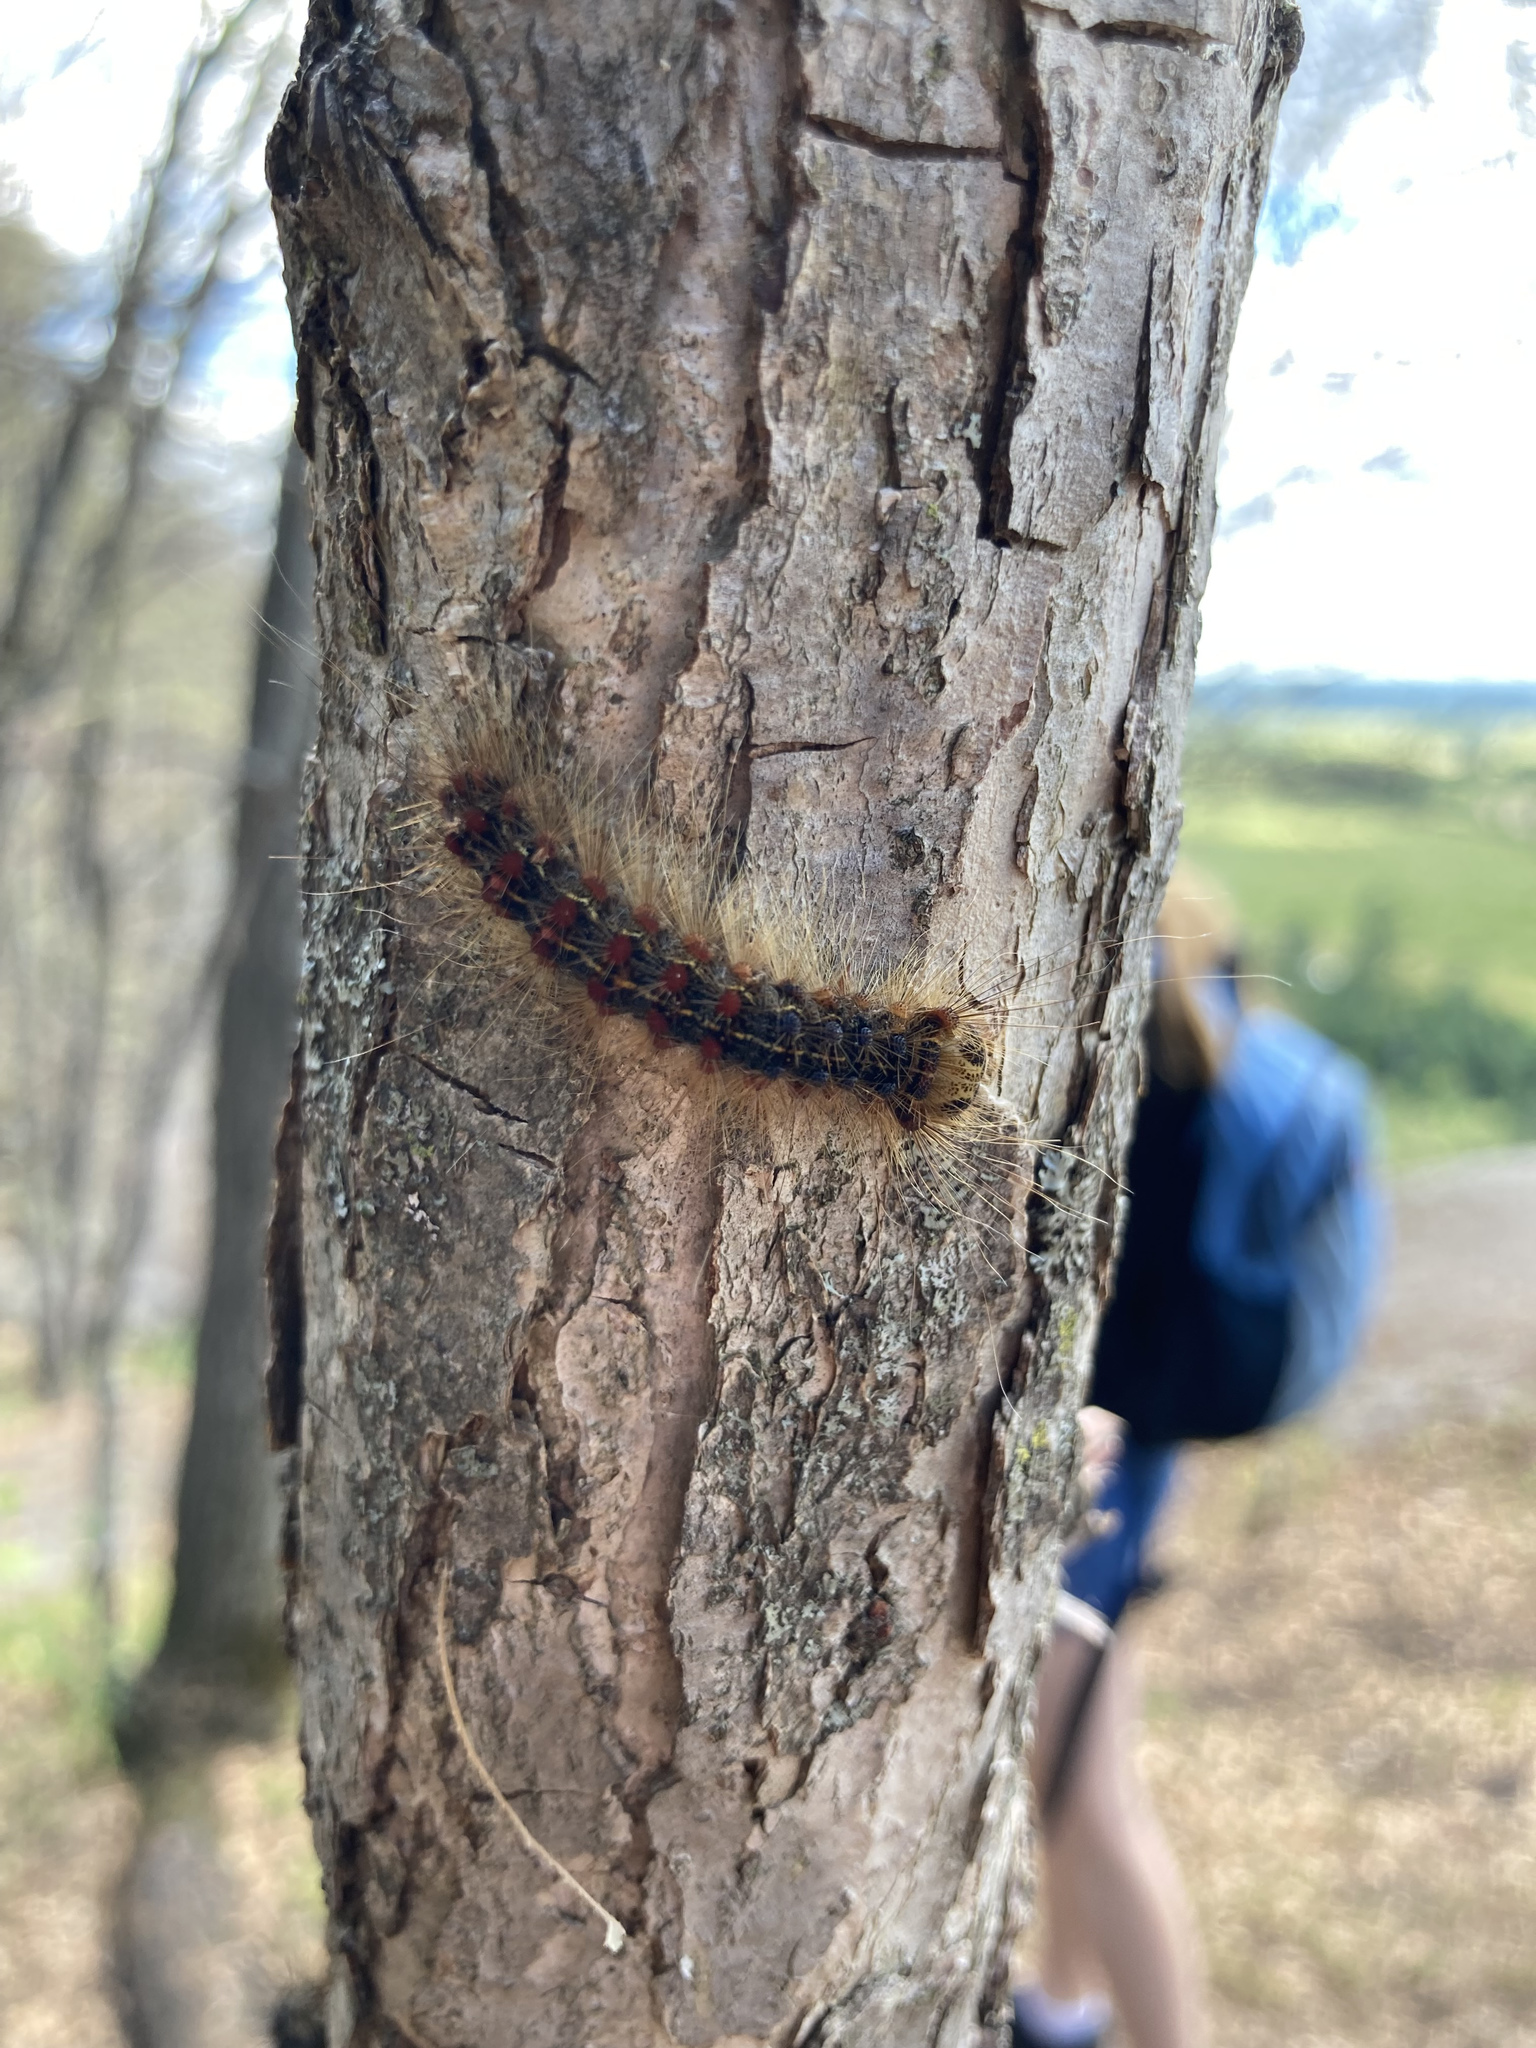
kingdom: Animalia
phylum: Arthropoda
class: Insecta
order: Lepidoptera
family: Erebidae
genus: Lymantria
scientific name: Lymantria dispar
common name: Gypsy moth
